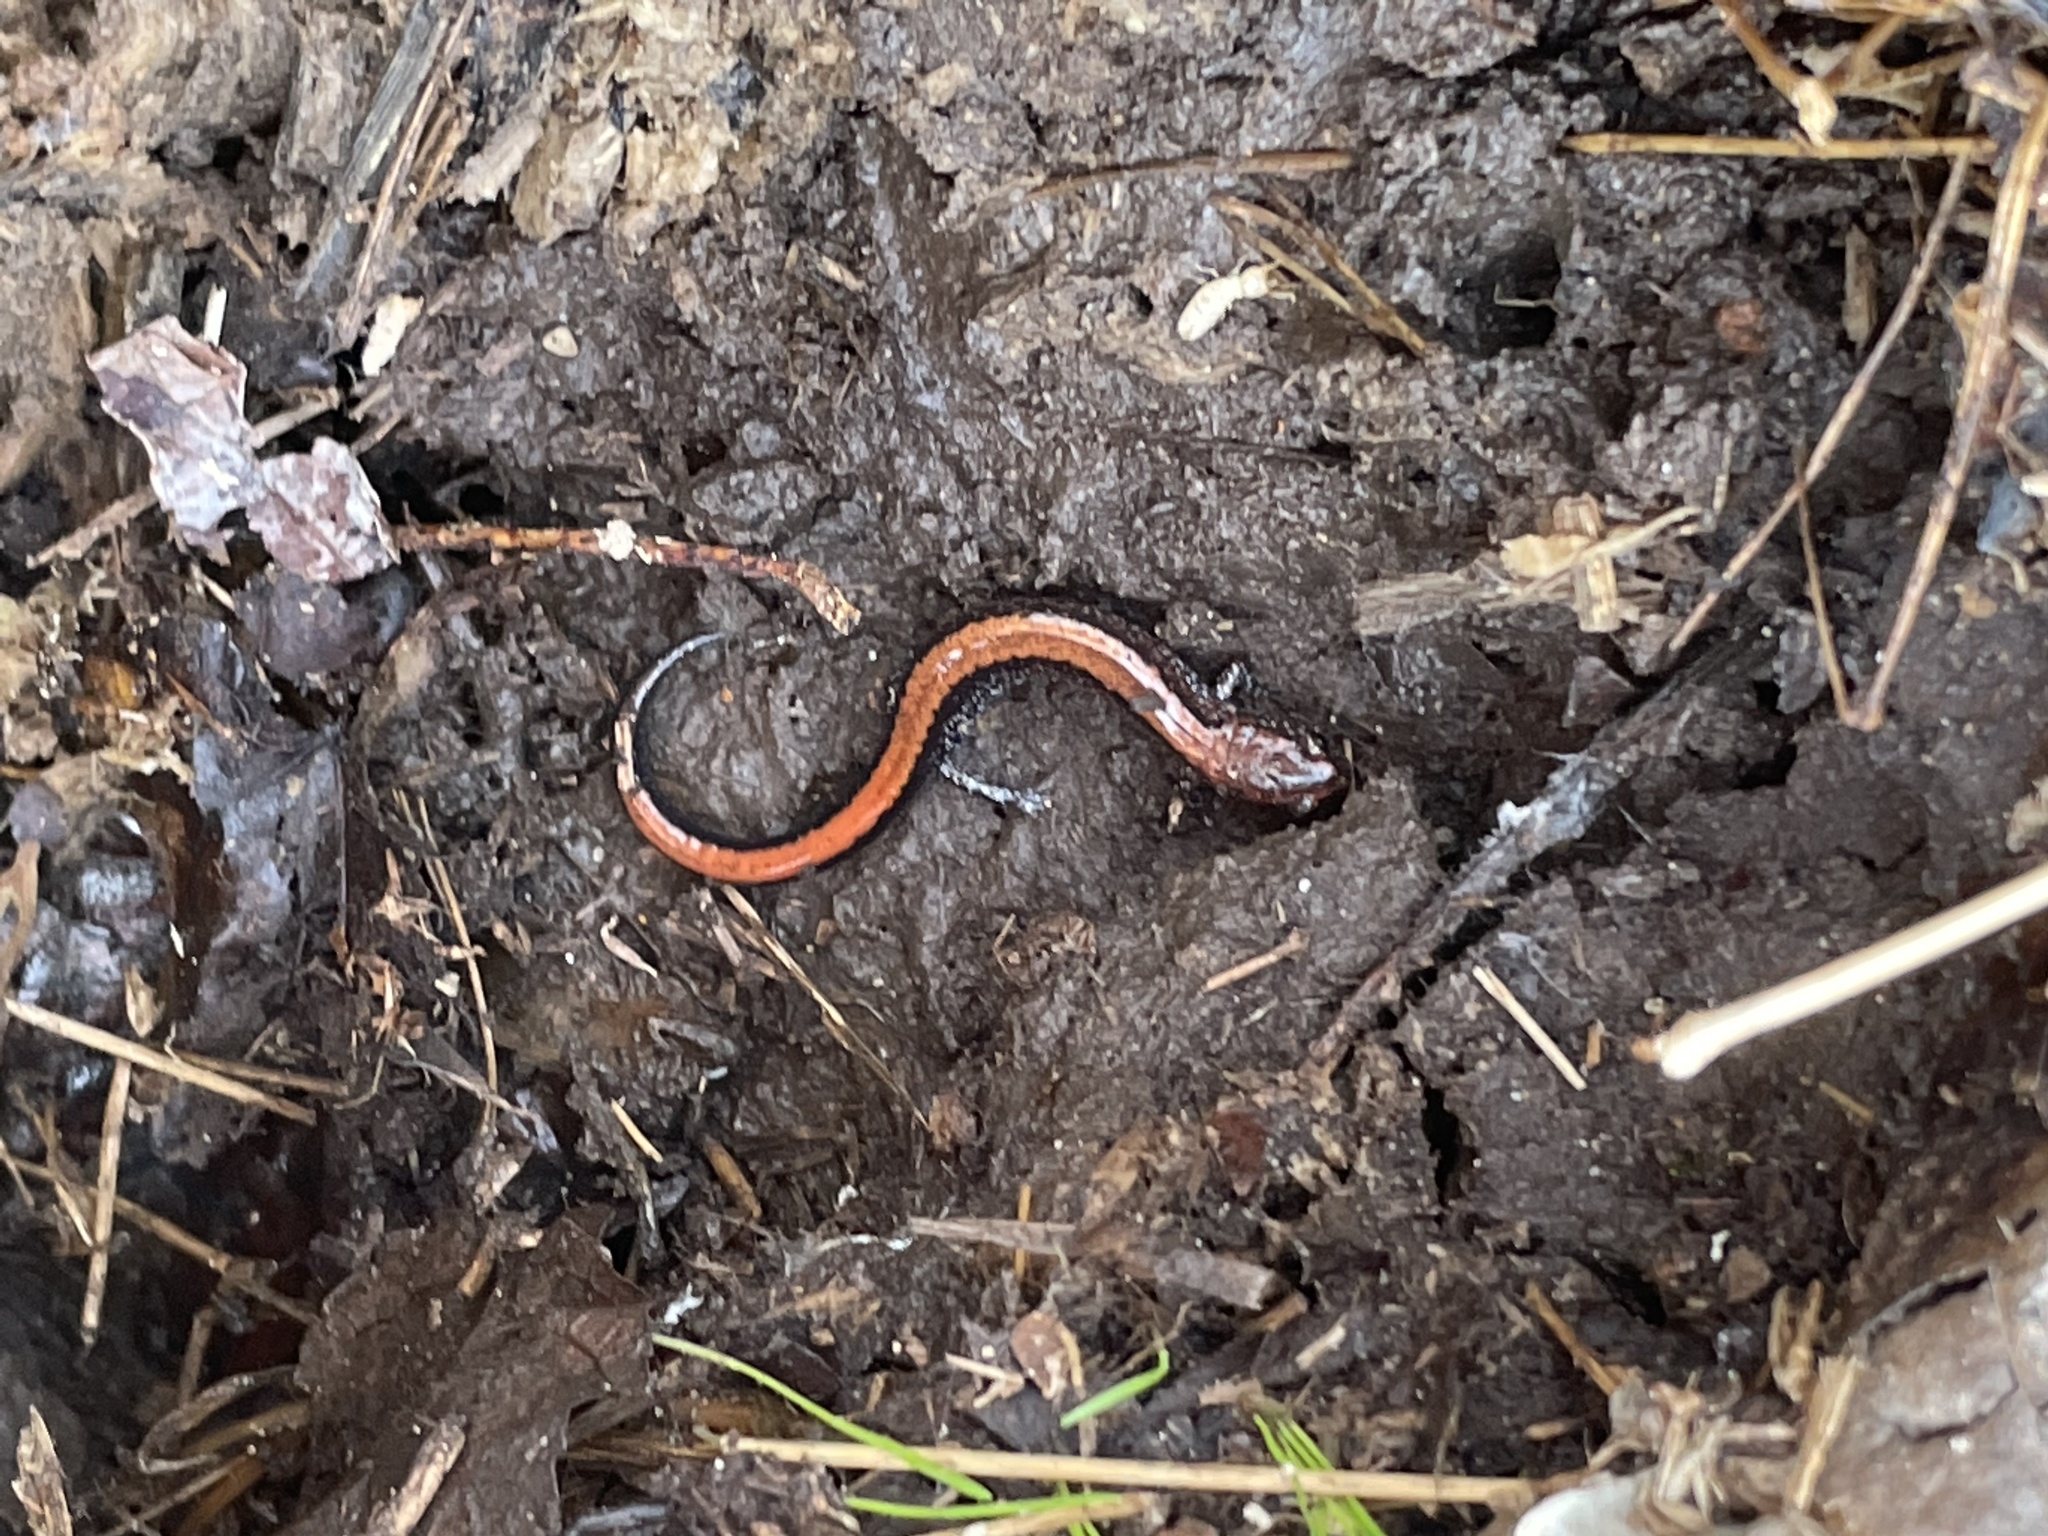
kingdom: Animalia
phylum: Chordata
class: Amphibia
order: Caudata
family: Plethodontidae
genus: Plethodon
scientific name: Plethodon cinereus
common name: Redback salamander
